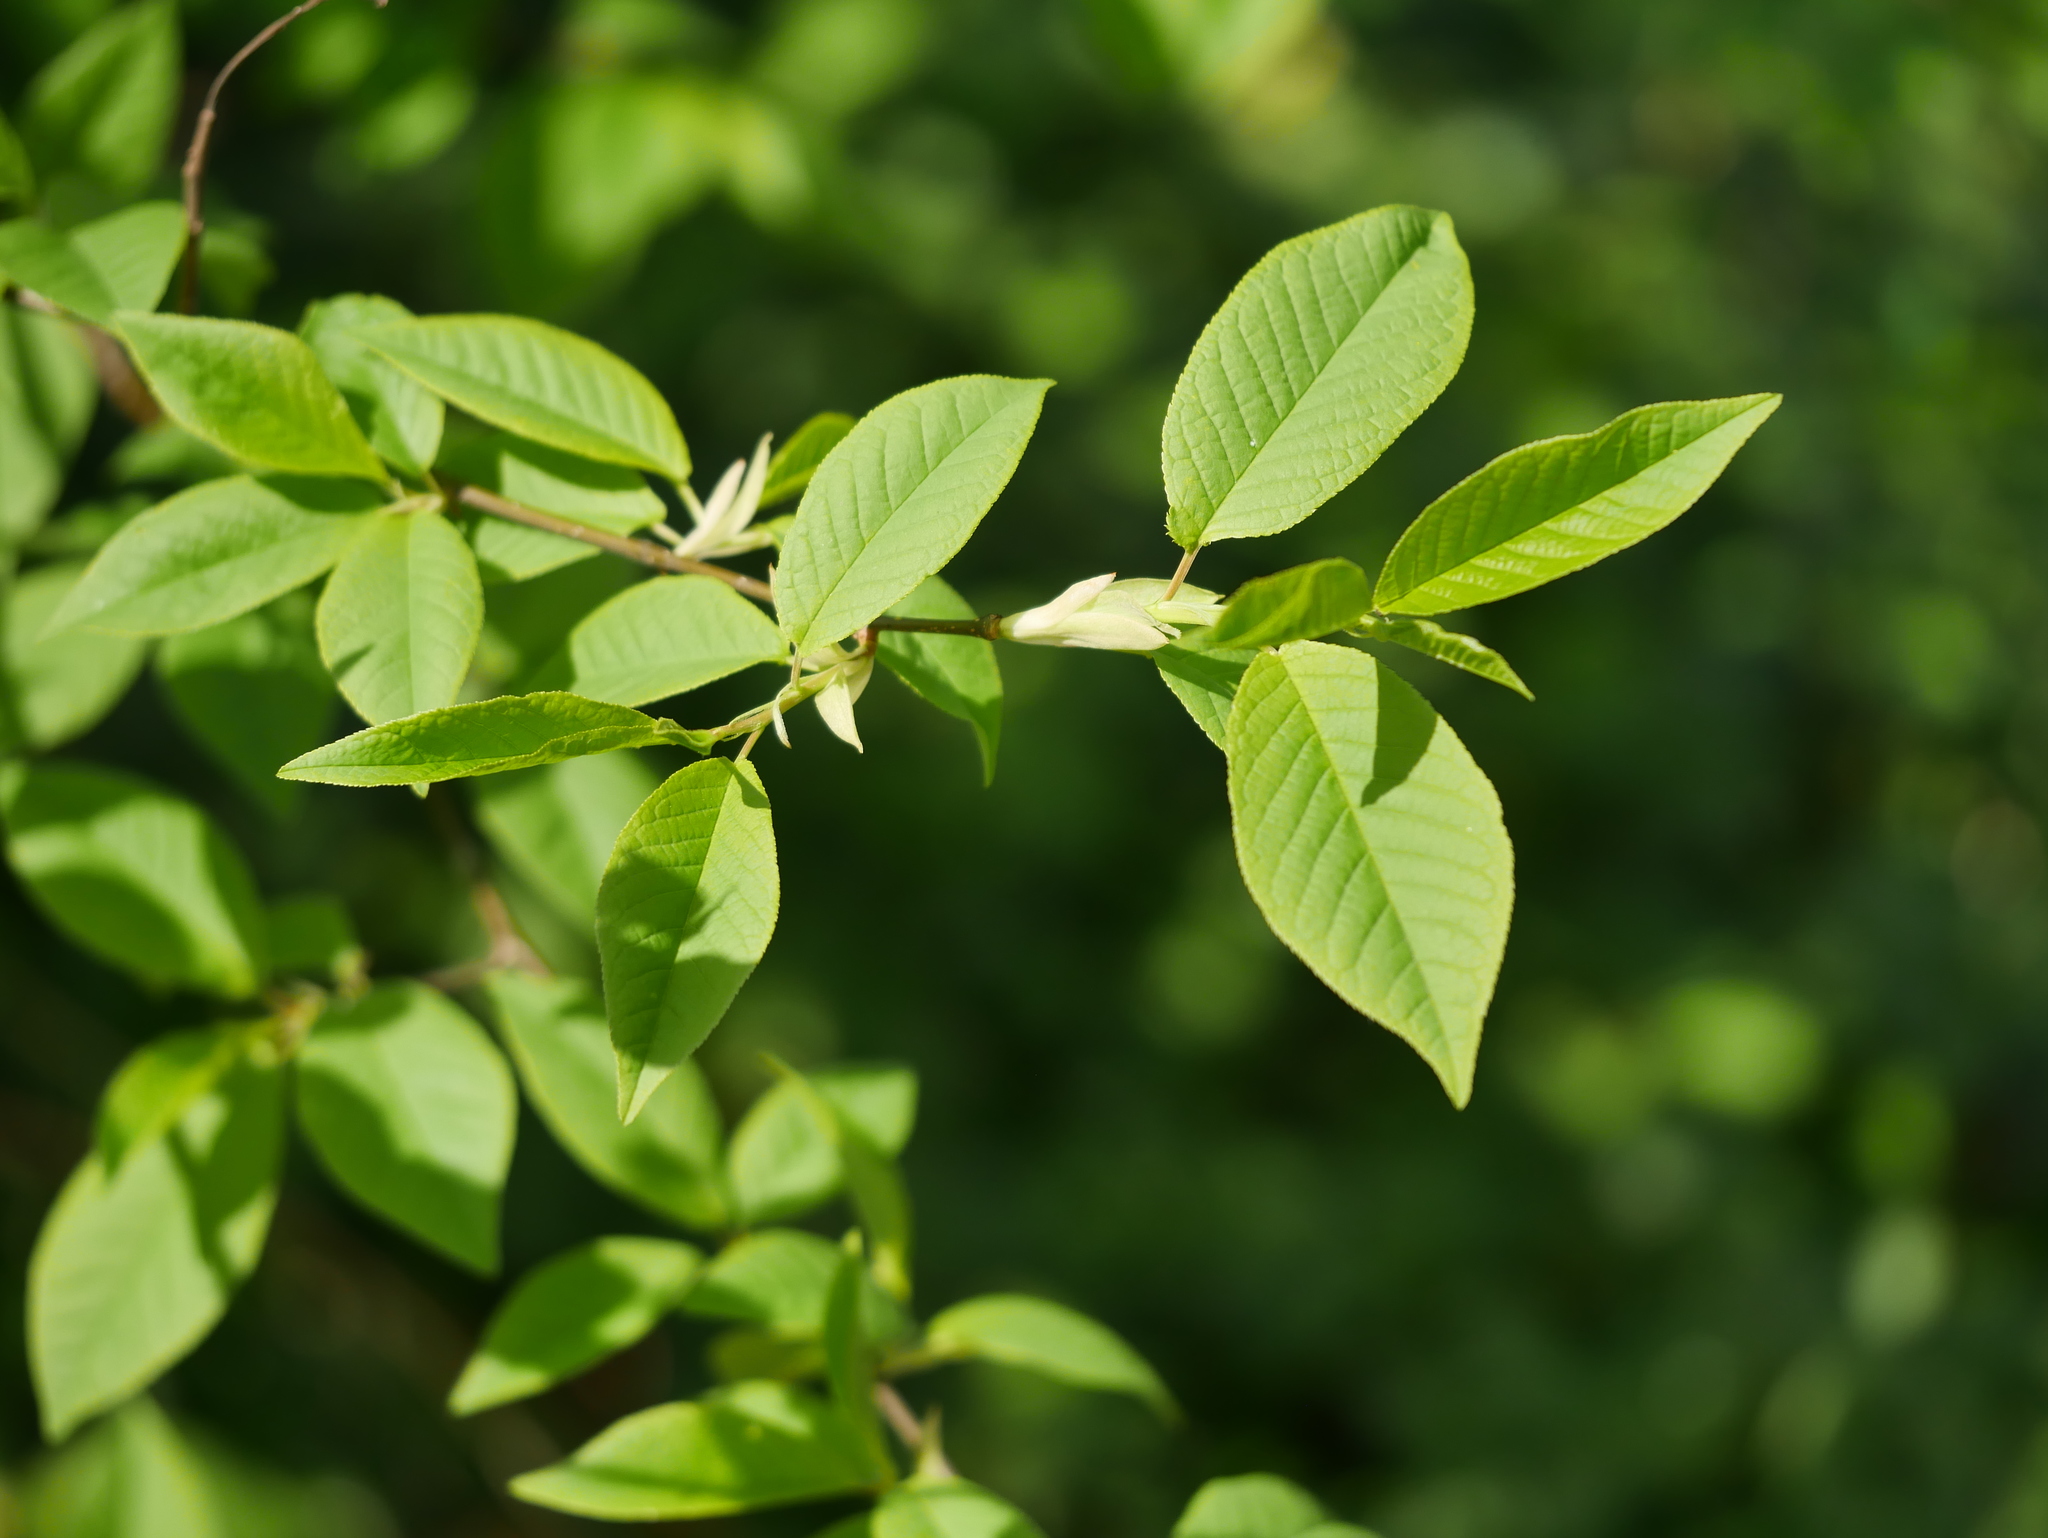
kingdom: Plantae
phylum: Tracheophyta
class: Magnoliopsida
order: Rosales
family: Rosaceae
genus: Prunus
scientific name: Prunus padus
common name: Bird cherry
